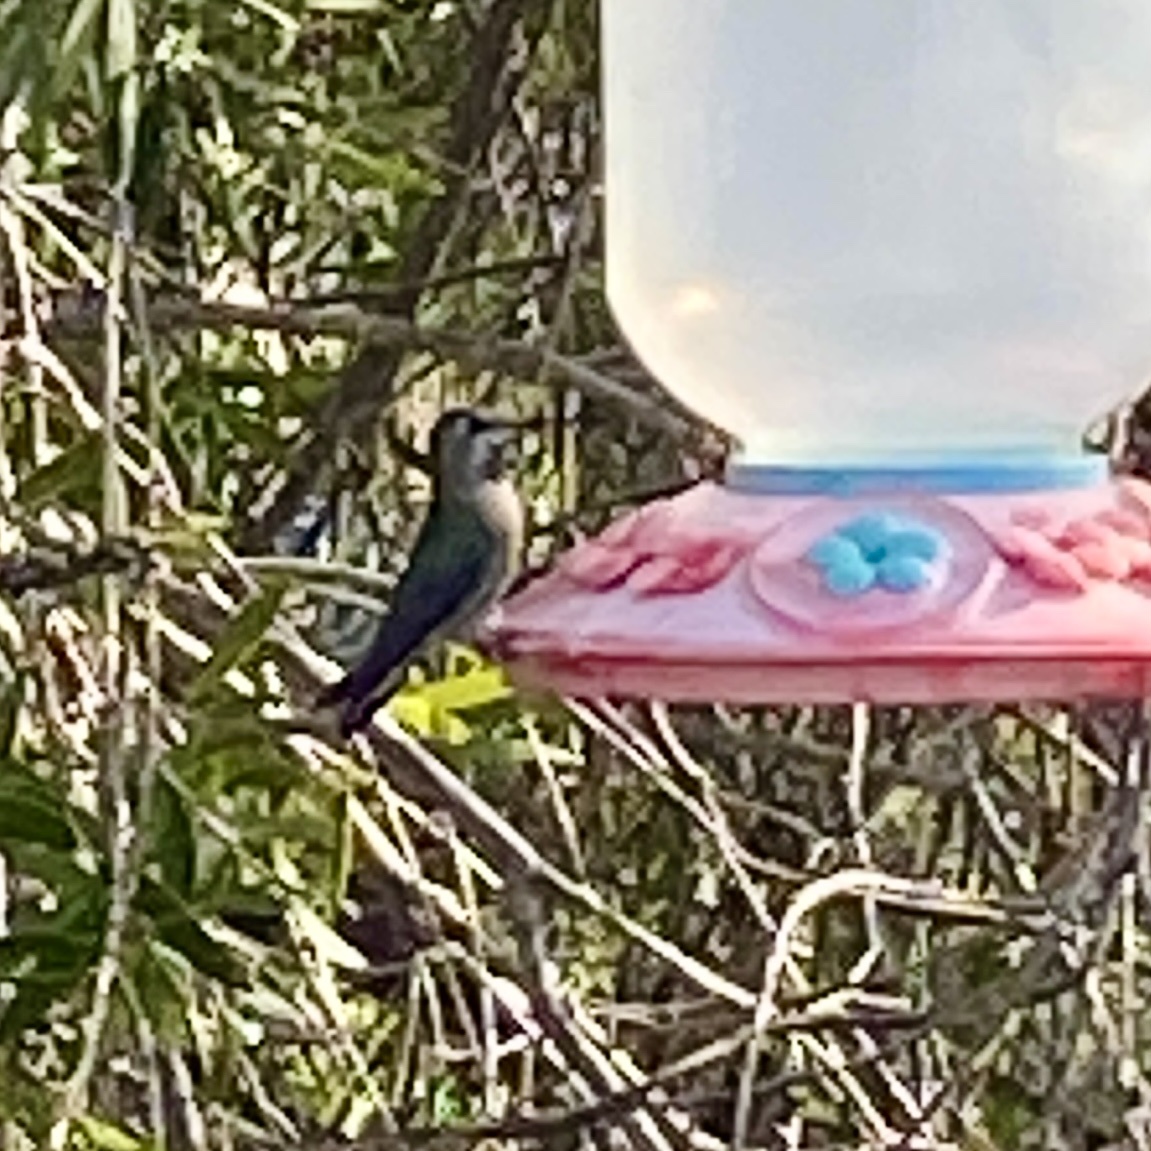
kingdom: Animalia
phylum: Chordata
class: Aves
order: Apodiformes
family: Trochilidae
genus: Calypte
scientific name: Calypte anna
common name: Anna's hummingbird
